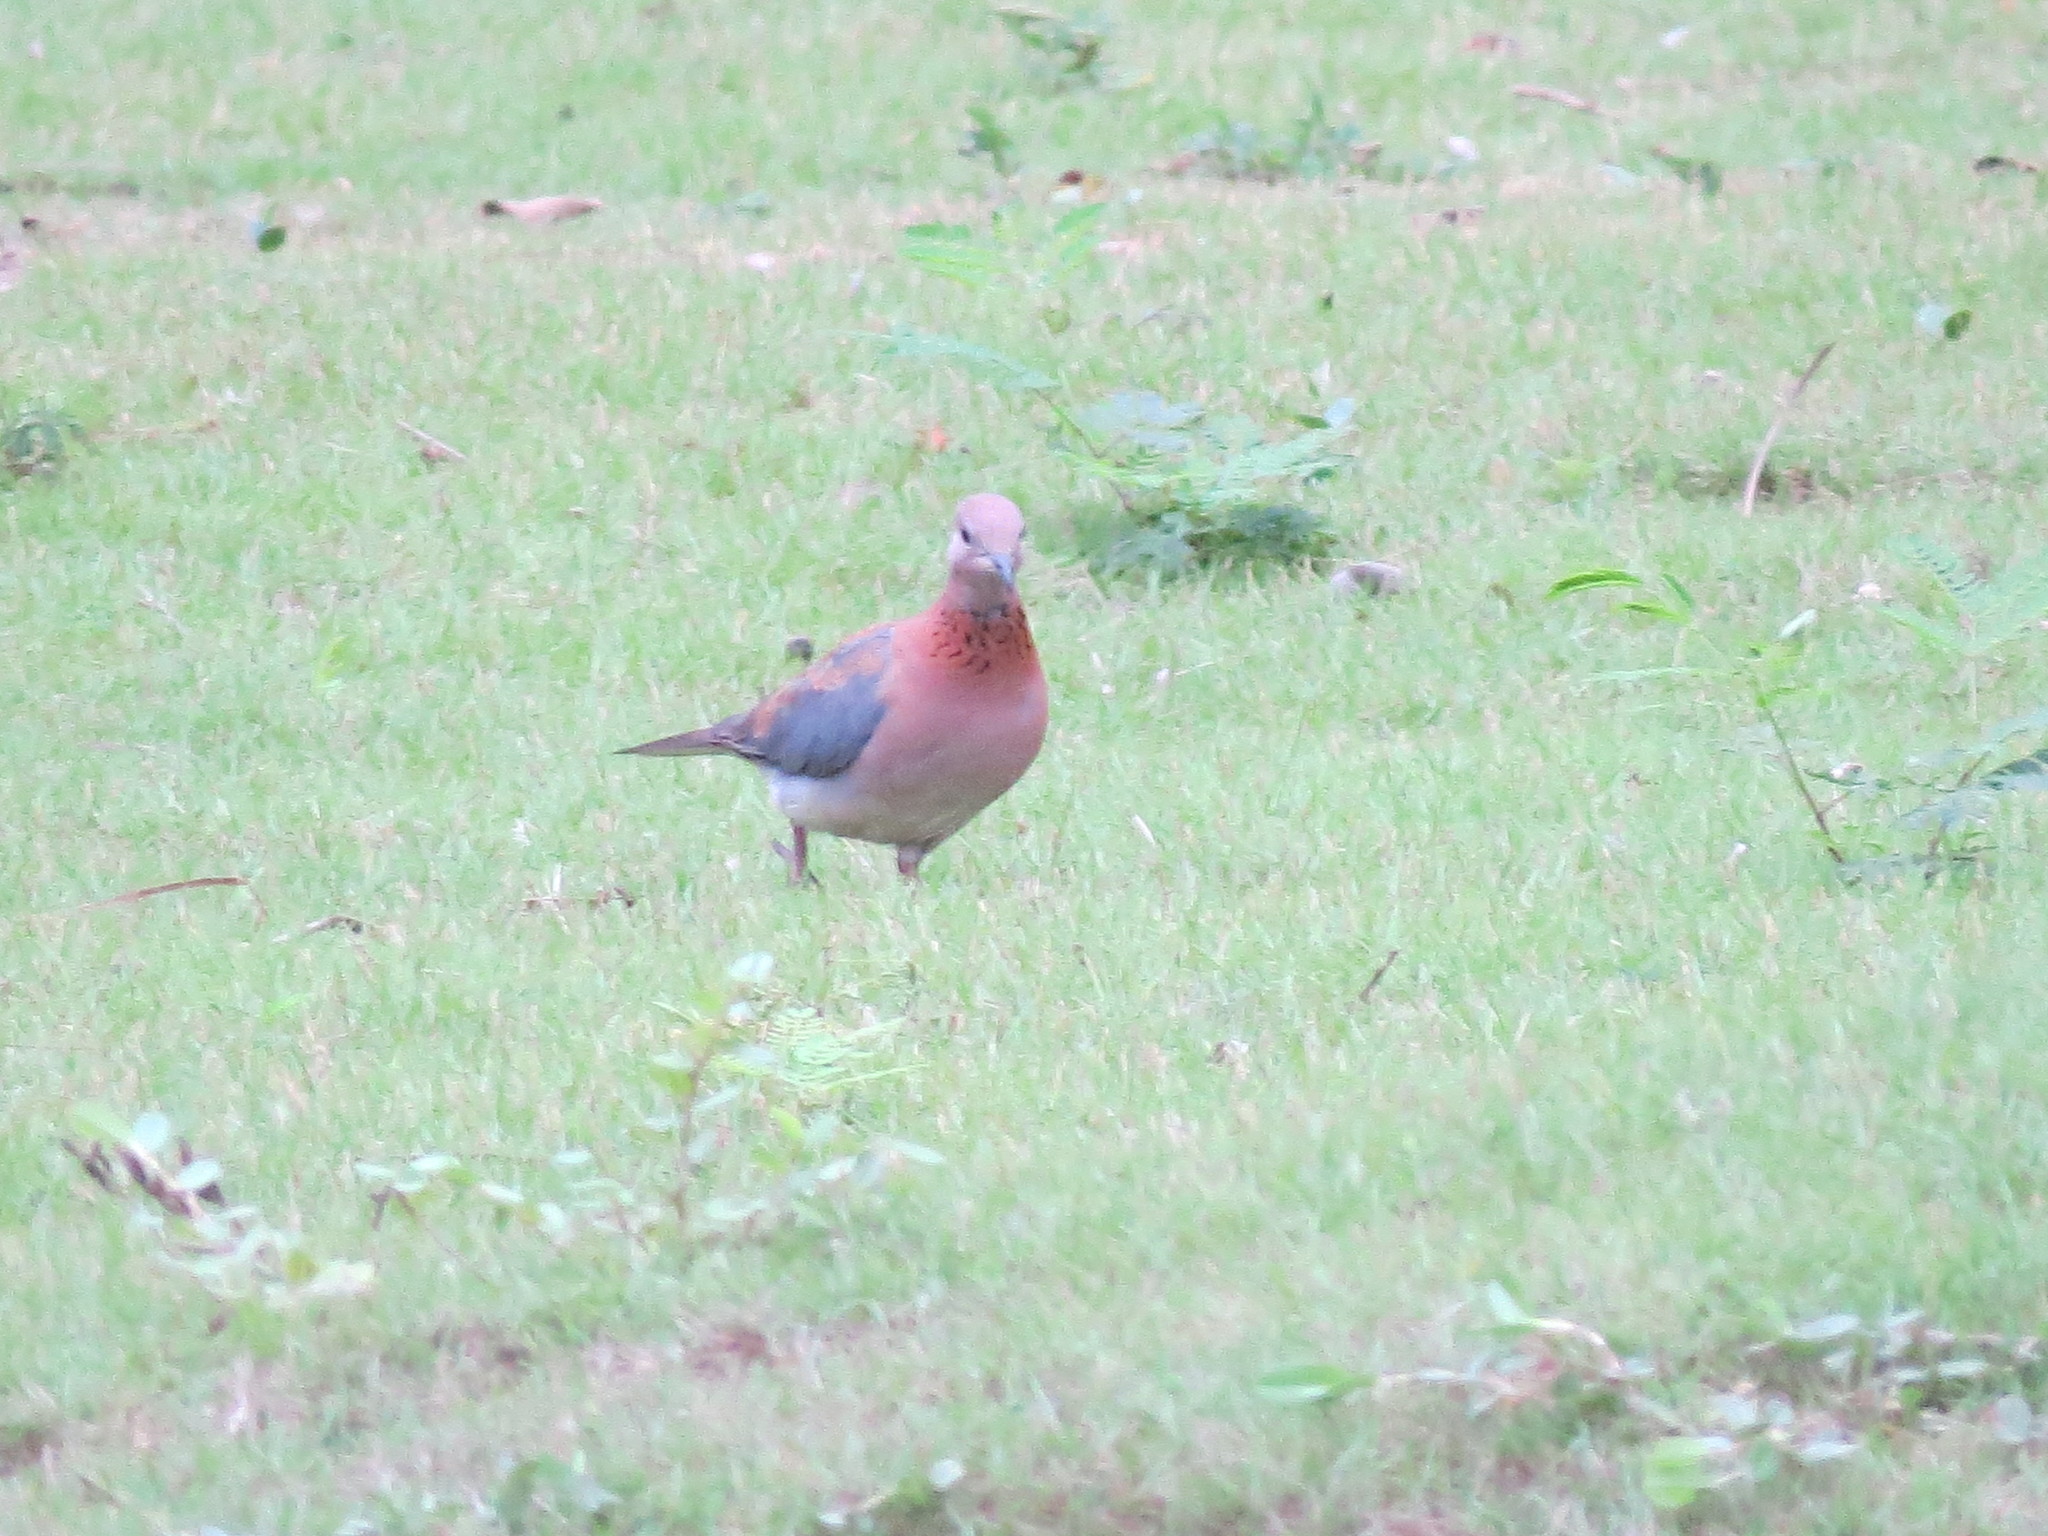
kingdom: Animalia
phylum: Chordata
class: Aves
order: Columbiformes
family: Columbidae
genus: Spilopelia
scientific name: Spilopelia senegalensis
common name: Laughing dove
